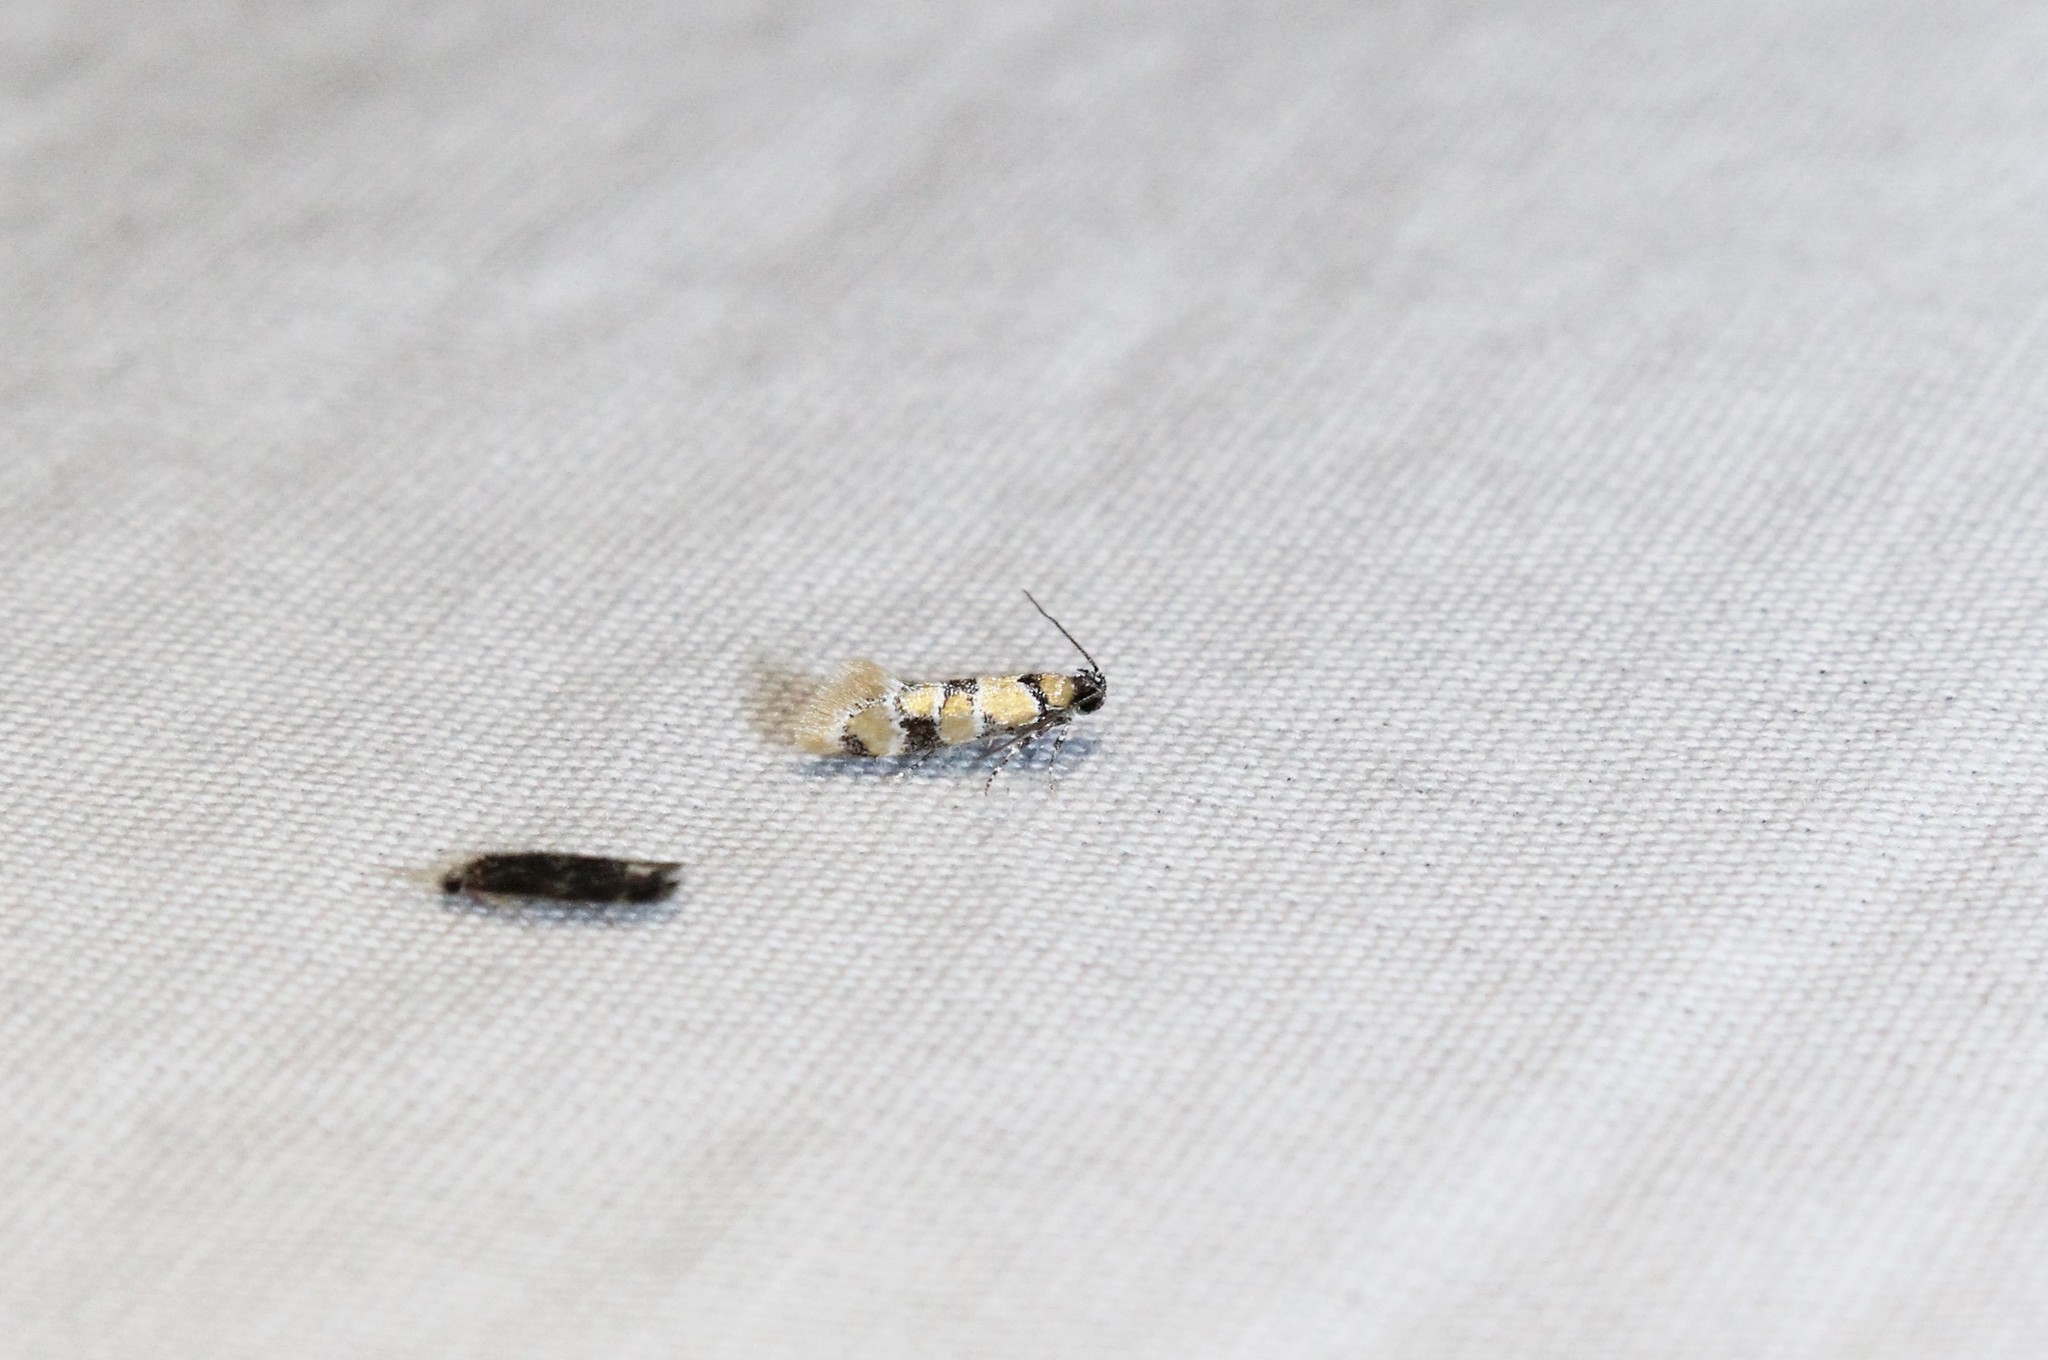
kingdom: Animalia
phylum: Arthropoda
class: Insecta
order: Lepidoptera
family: Oecophoridae
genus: Decantha
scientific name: Decantha borkhausenii
